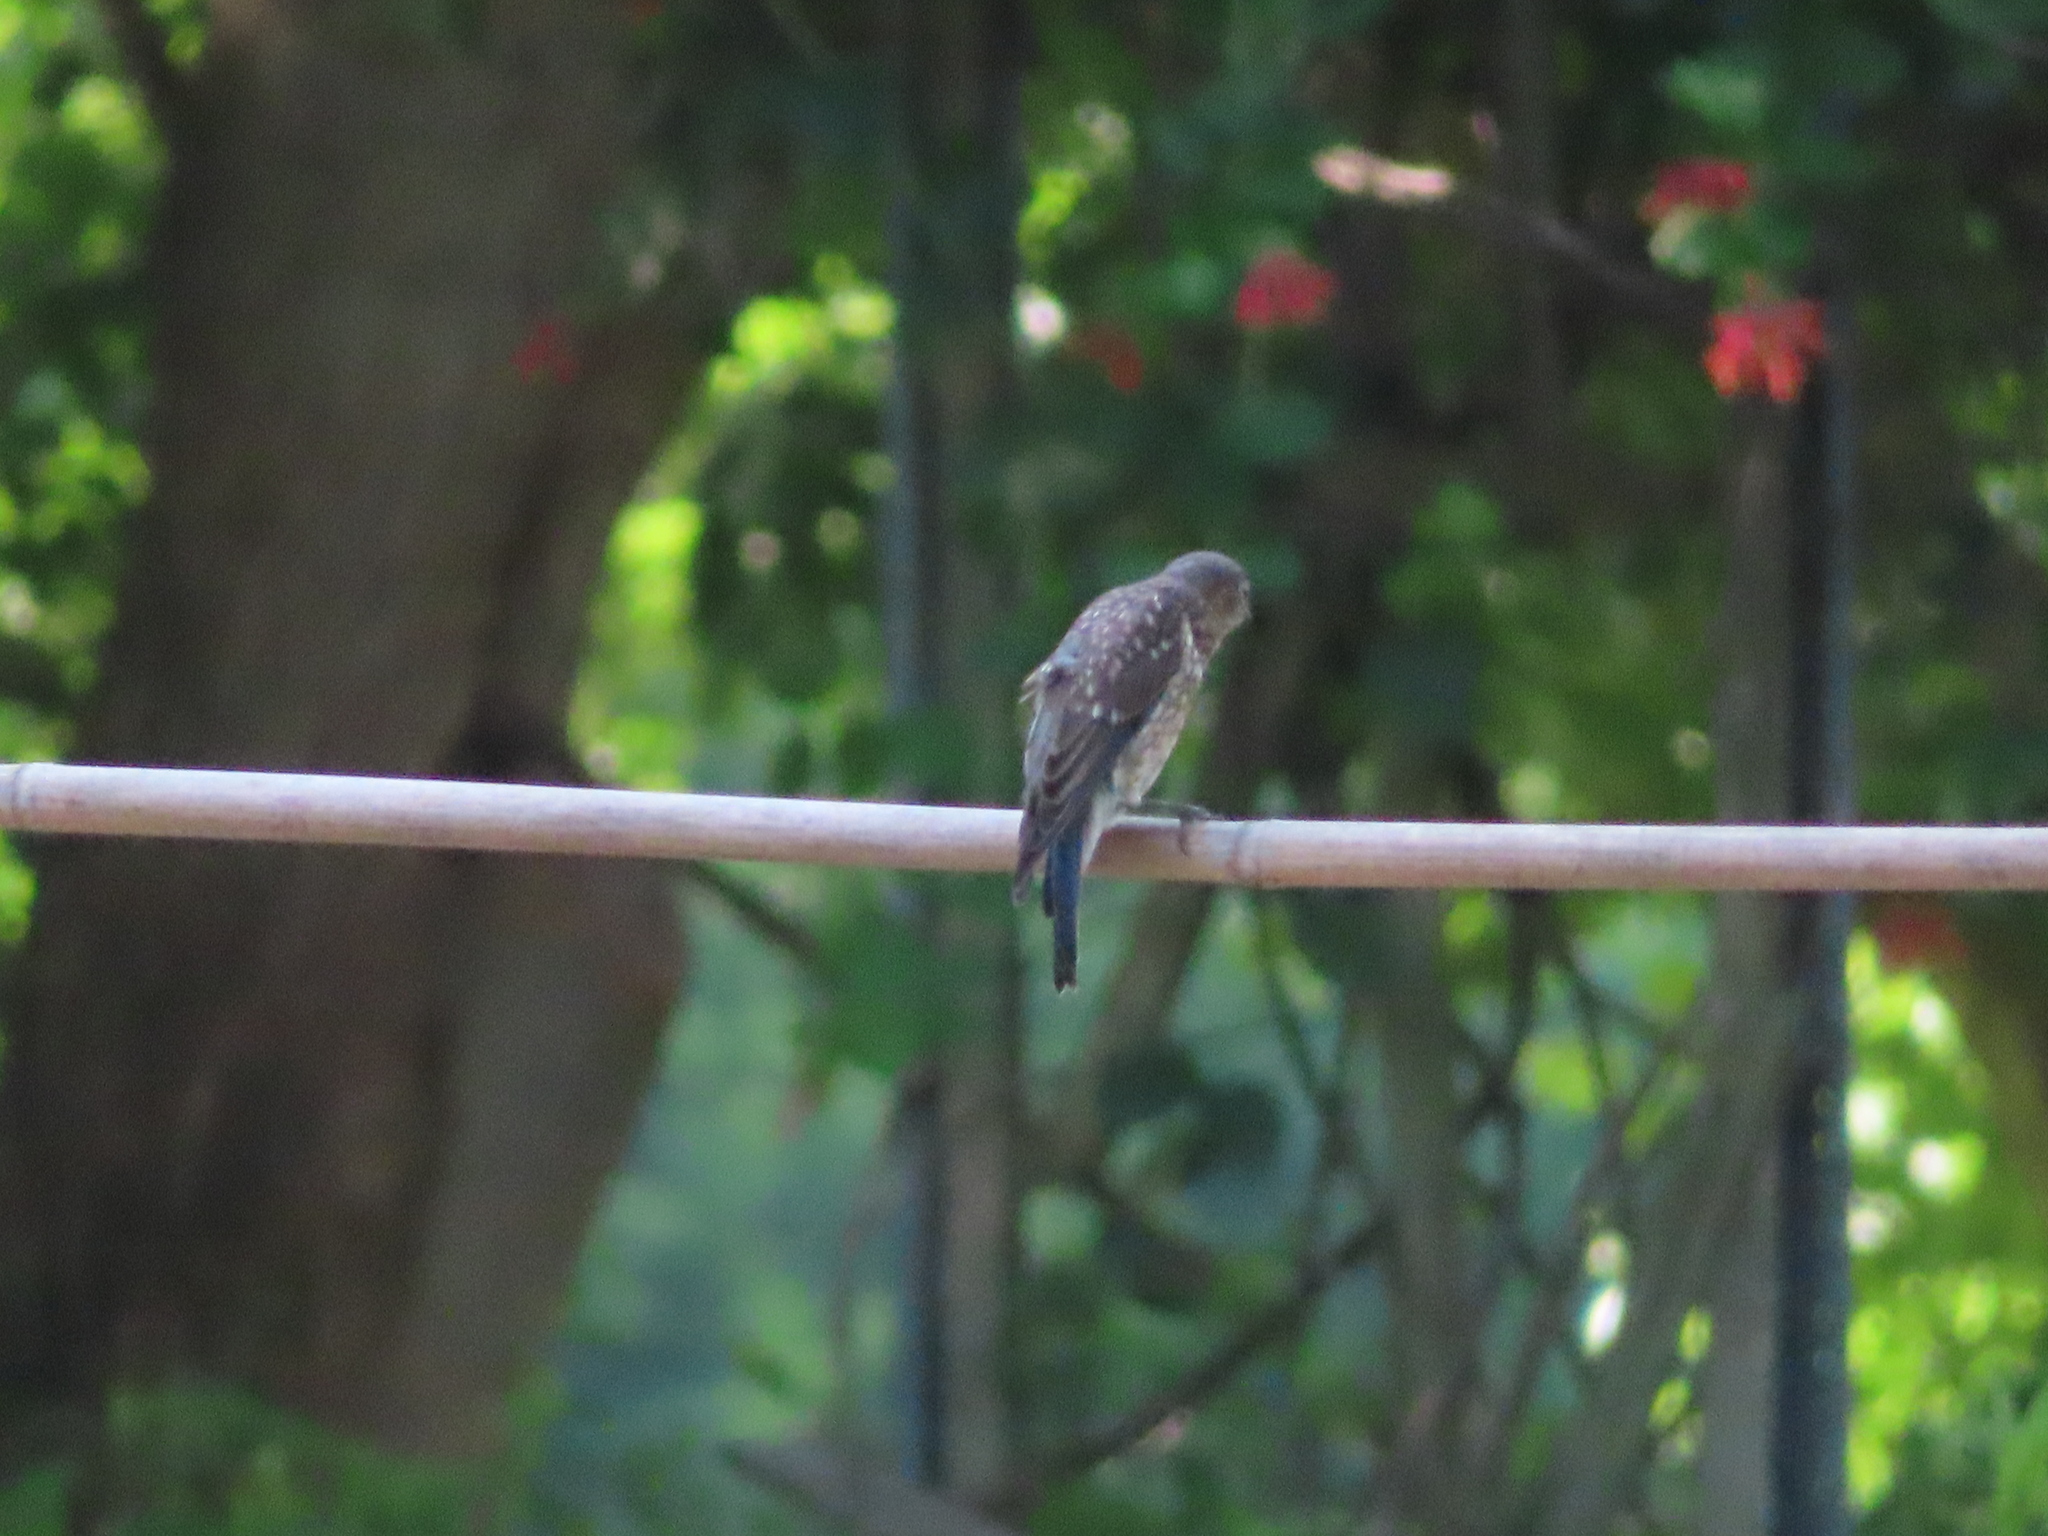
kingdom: Animalia
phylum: Chordata
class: Aves
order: Passeriformes
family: Turdidae
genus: Sialia
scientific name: Sialia sialis
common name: Eastern bluebird
